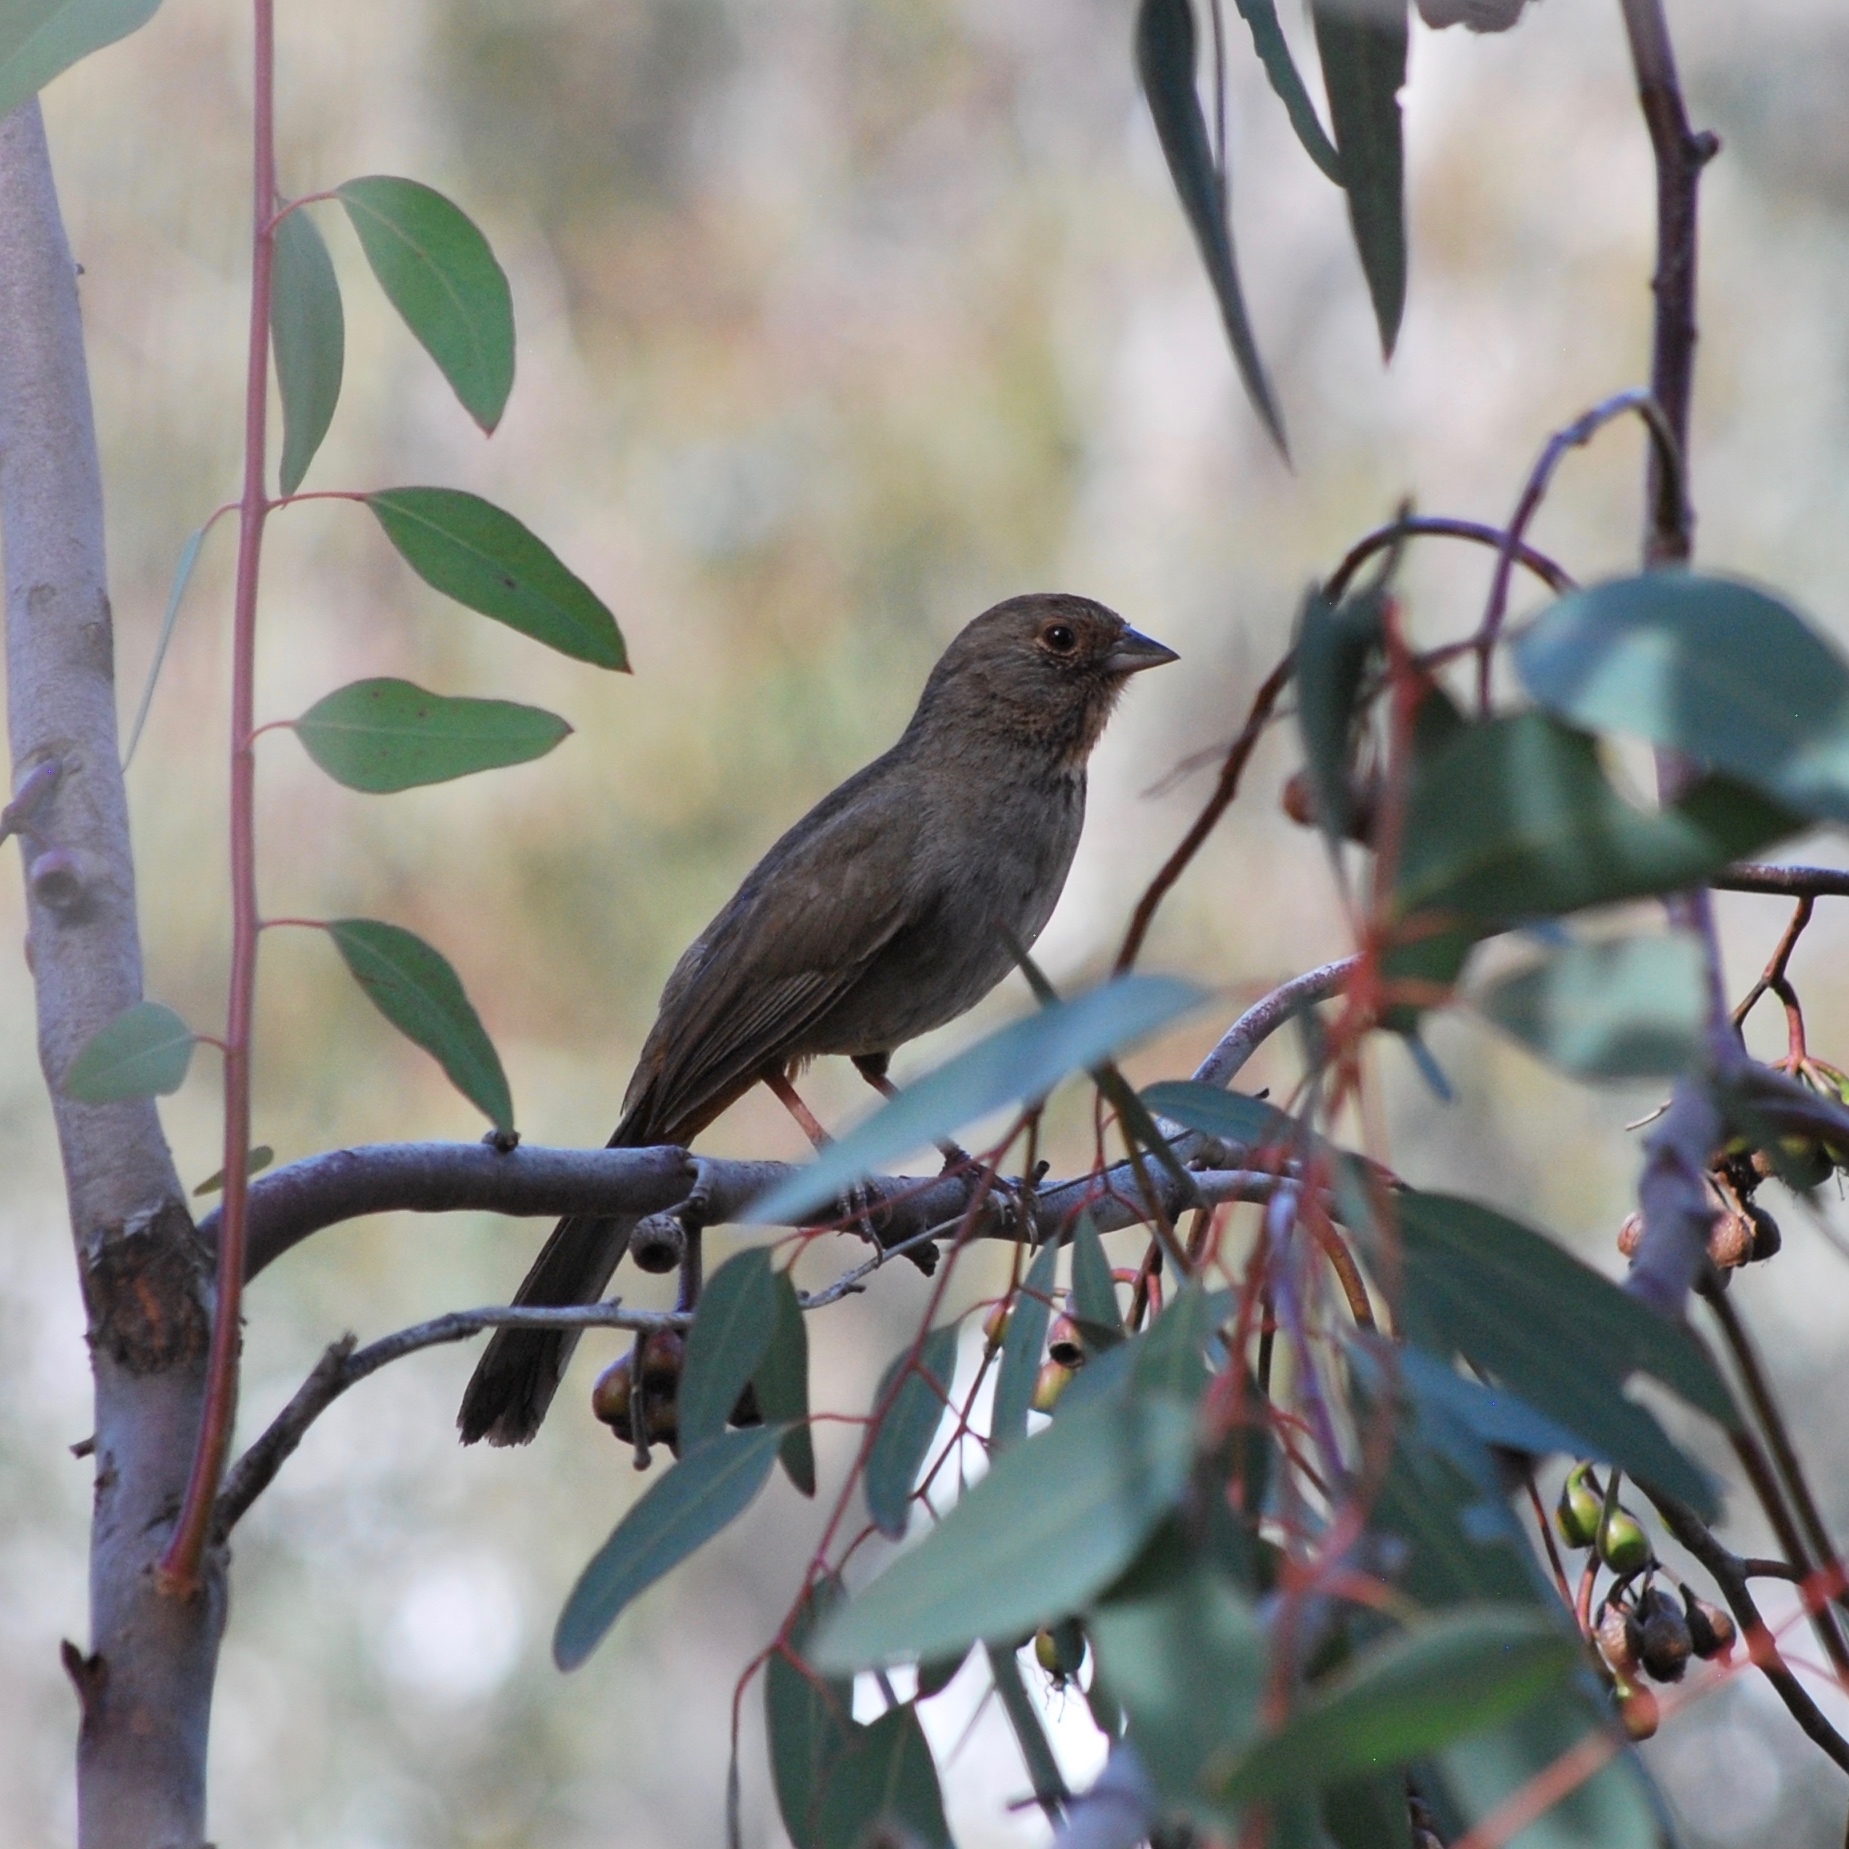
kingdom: Animalia
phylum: Chordata
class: Aves
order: Passeriformes
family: Passerellidae
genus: Melozone
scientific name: Melozone crissalis
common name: California towhee
